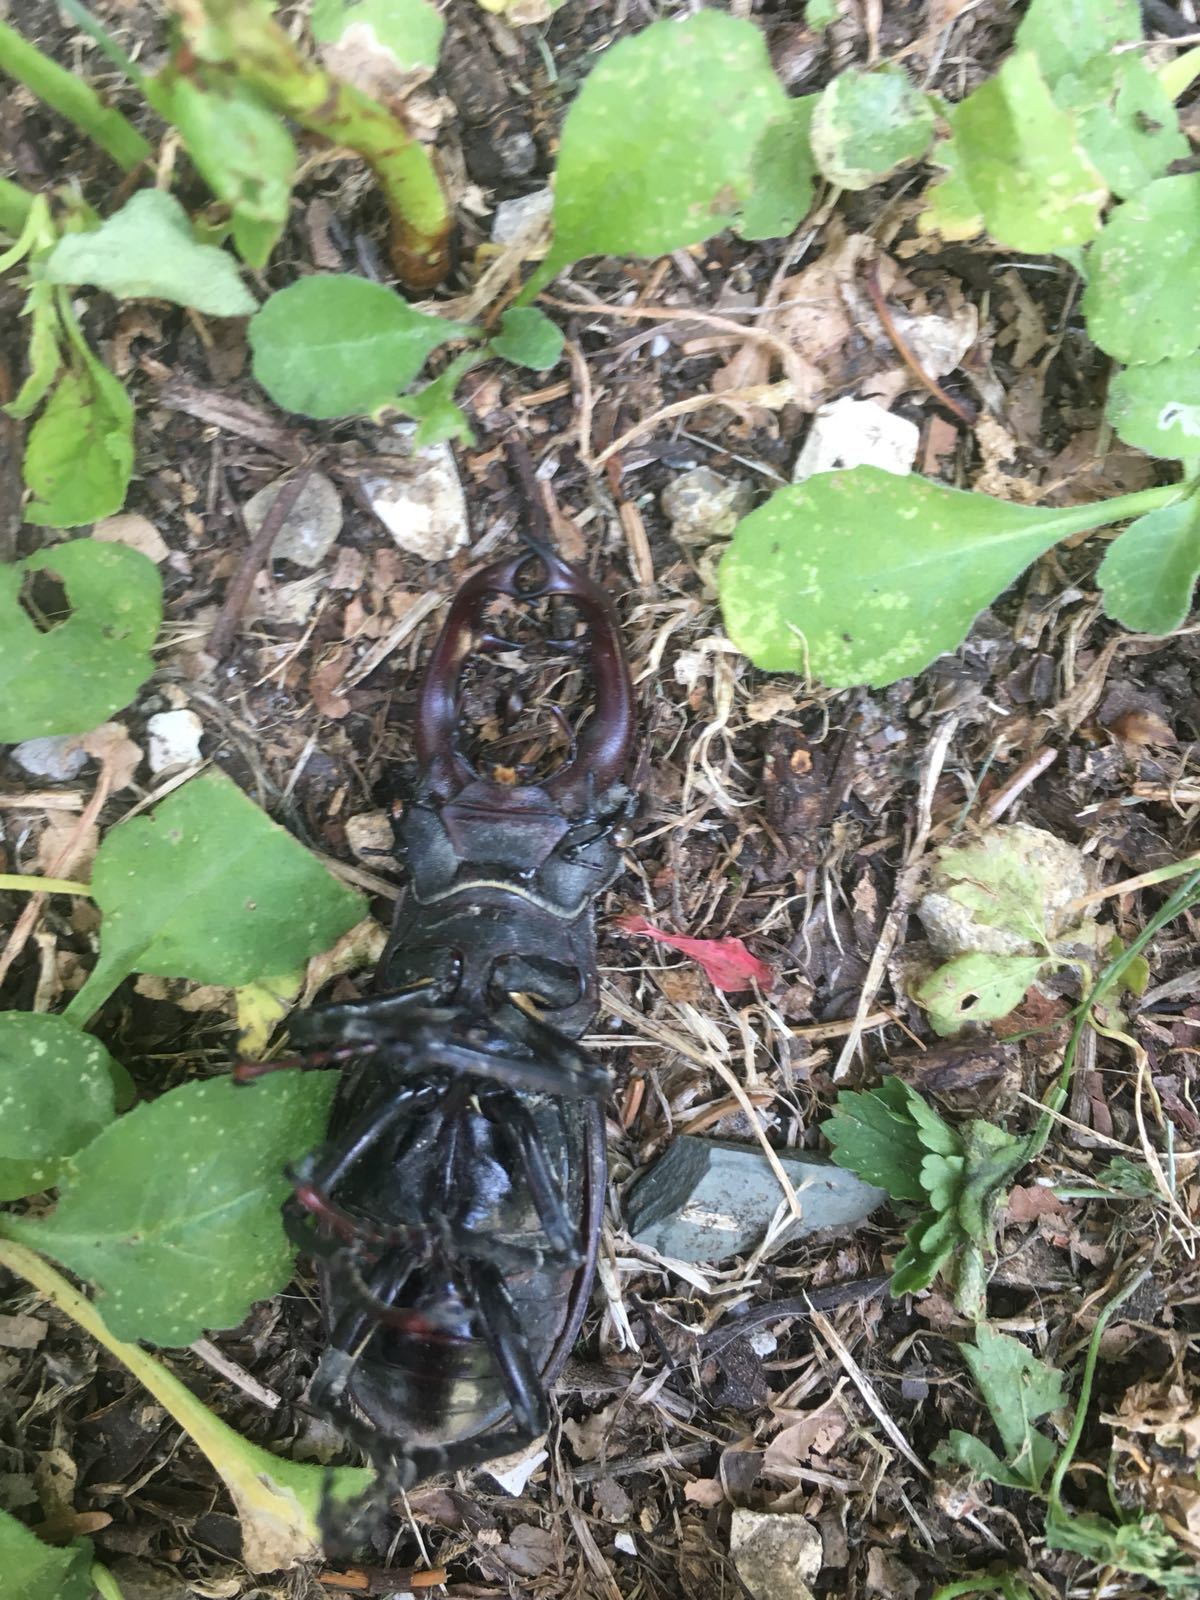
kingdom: Animalia
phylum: Arthropoda
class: Insecta
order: Coleoptera
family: Lucanidae
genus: Lucanus
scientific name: Lucanus cervus
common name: Stag beetle
